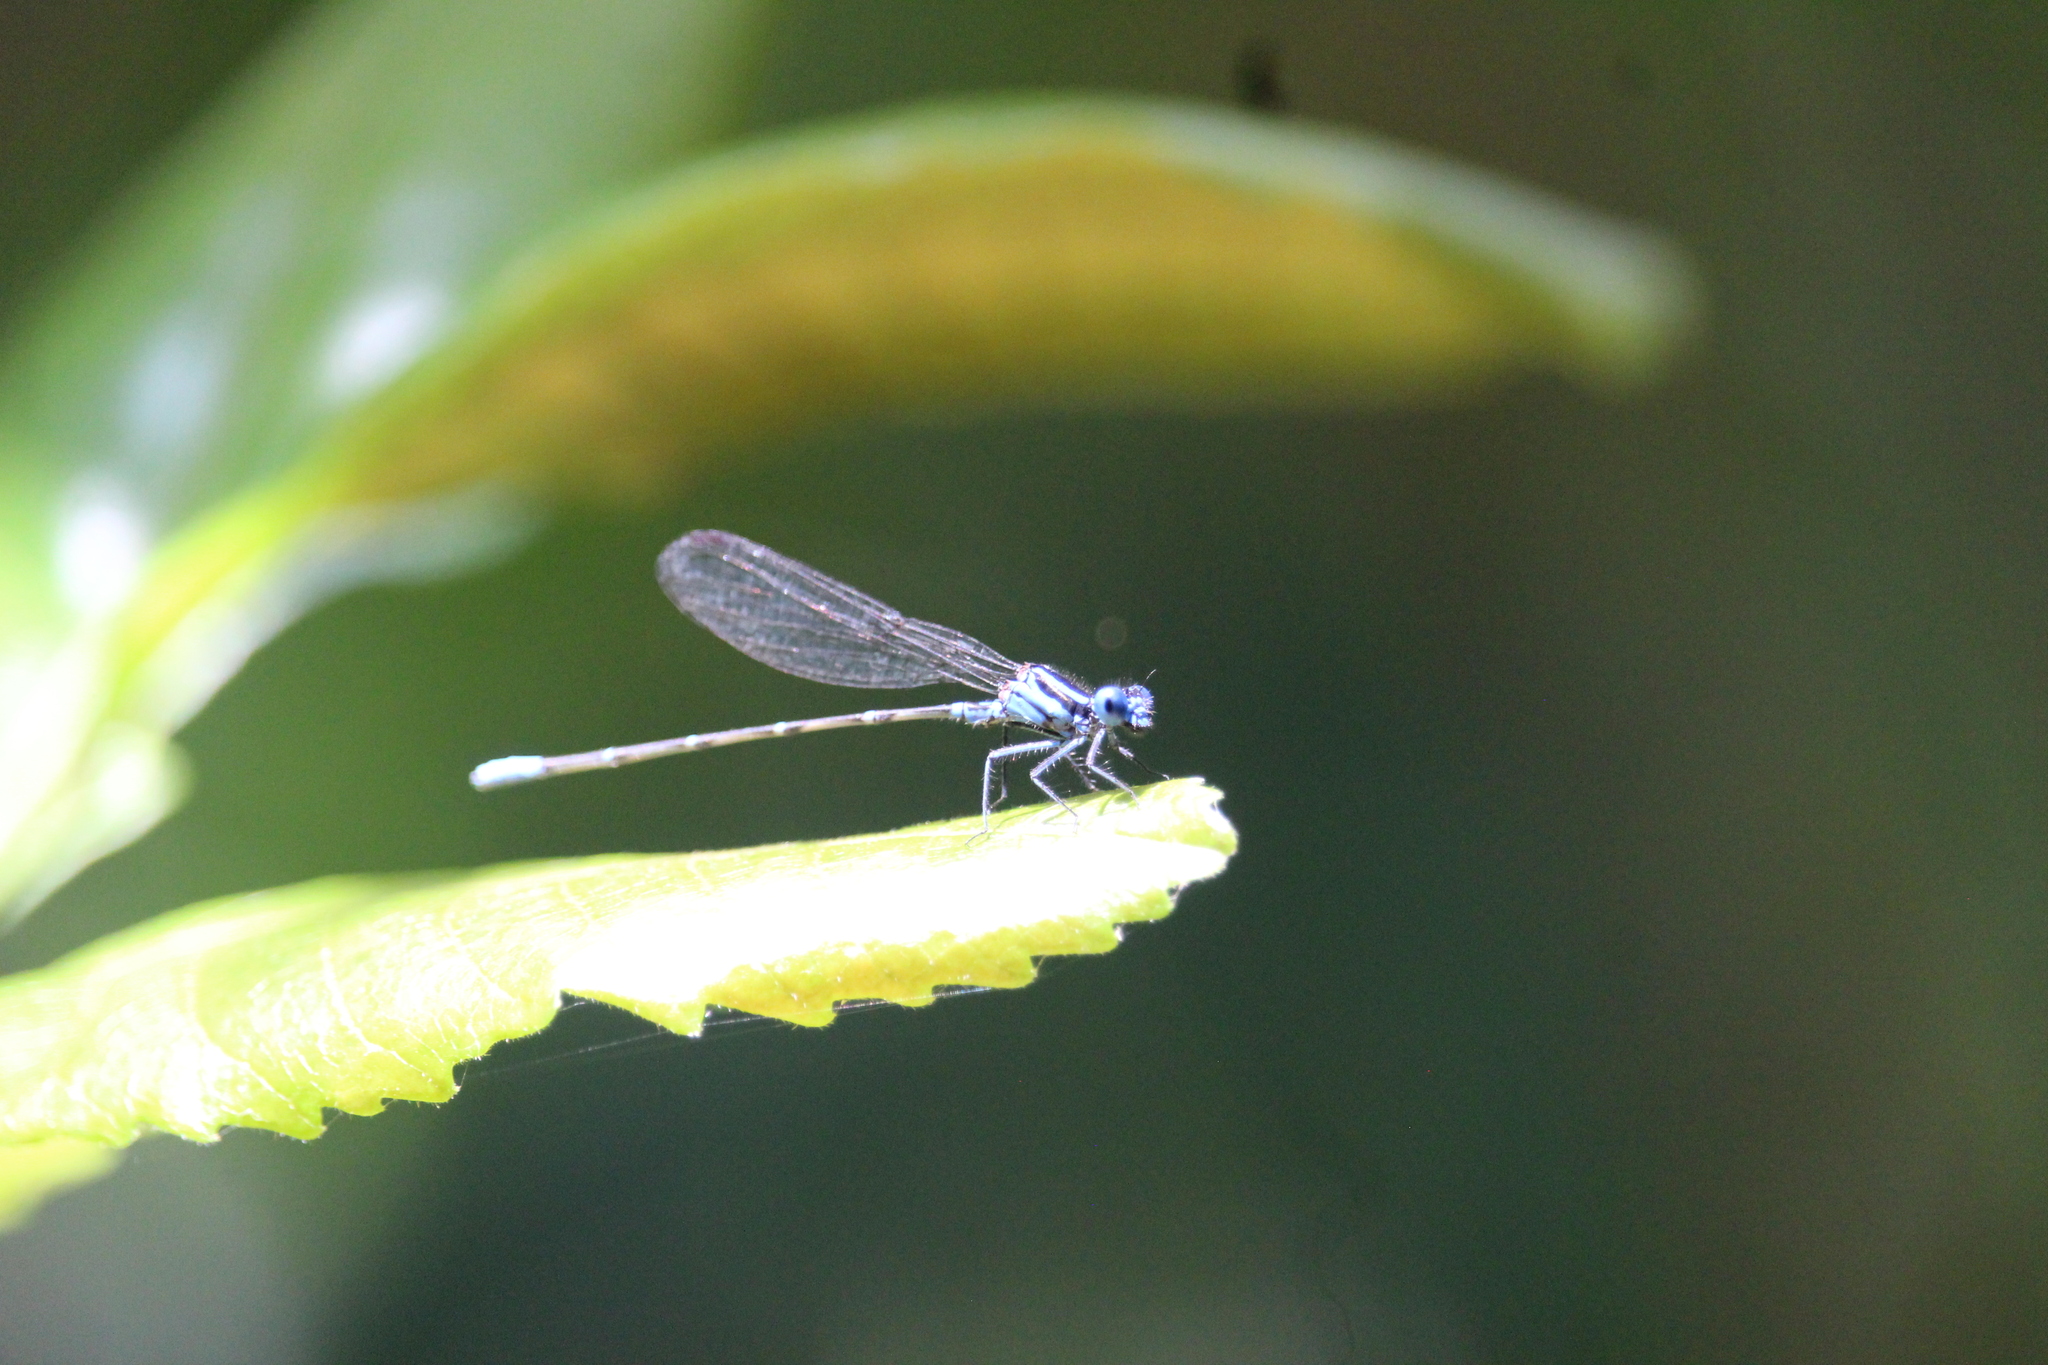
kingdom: Animalia
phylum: Arthropoda
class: Insecta
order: Odonata
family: Coenagrionidae
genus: Argia
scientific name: Argia gaumeri
